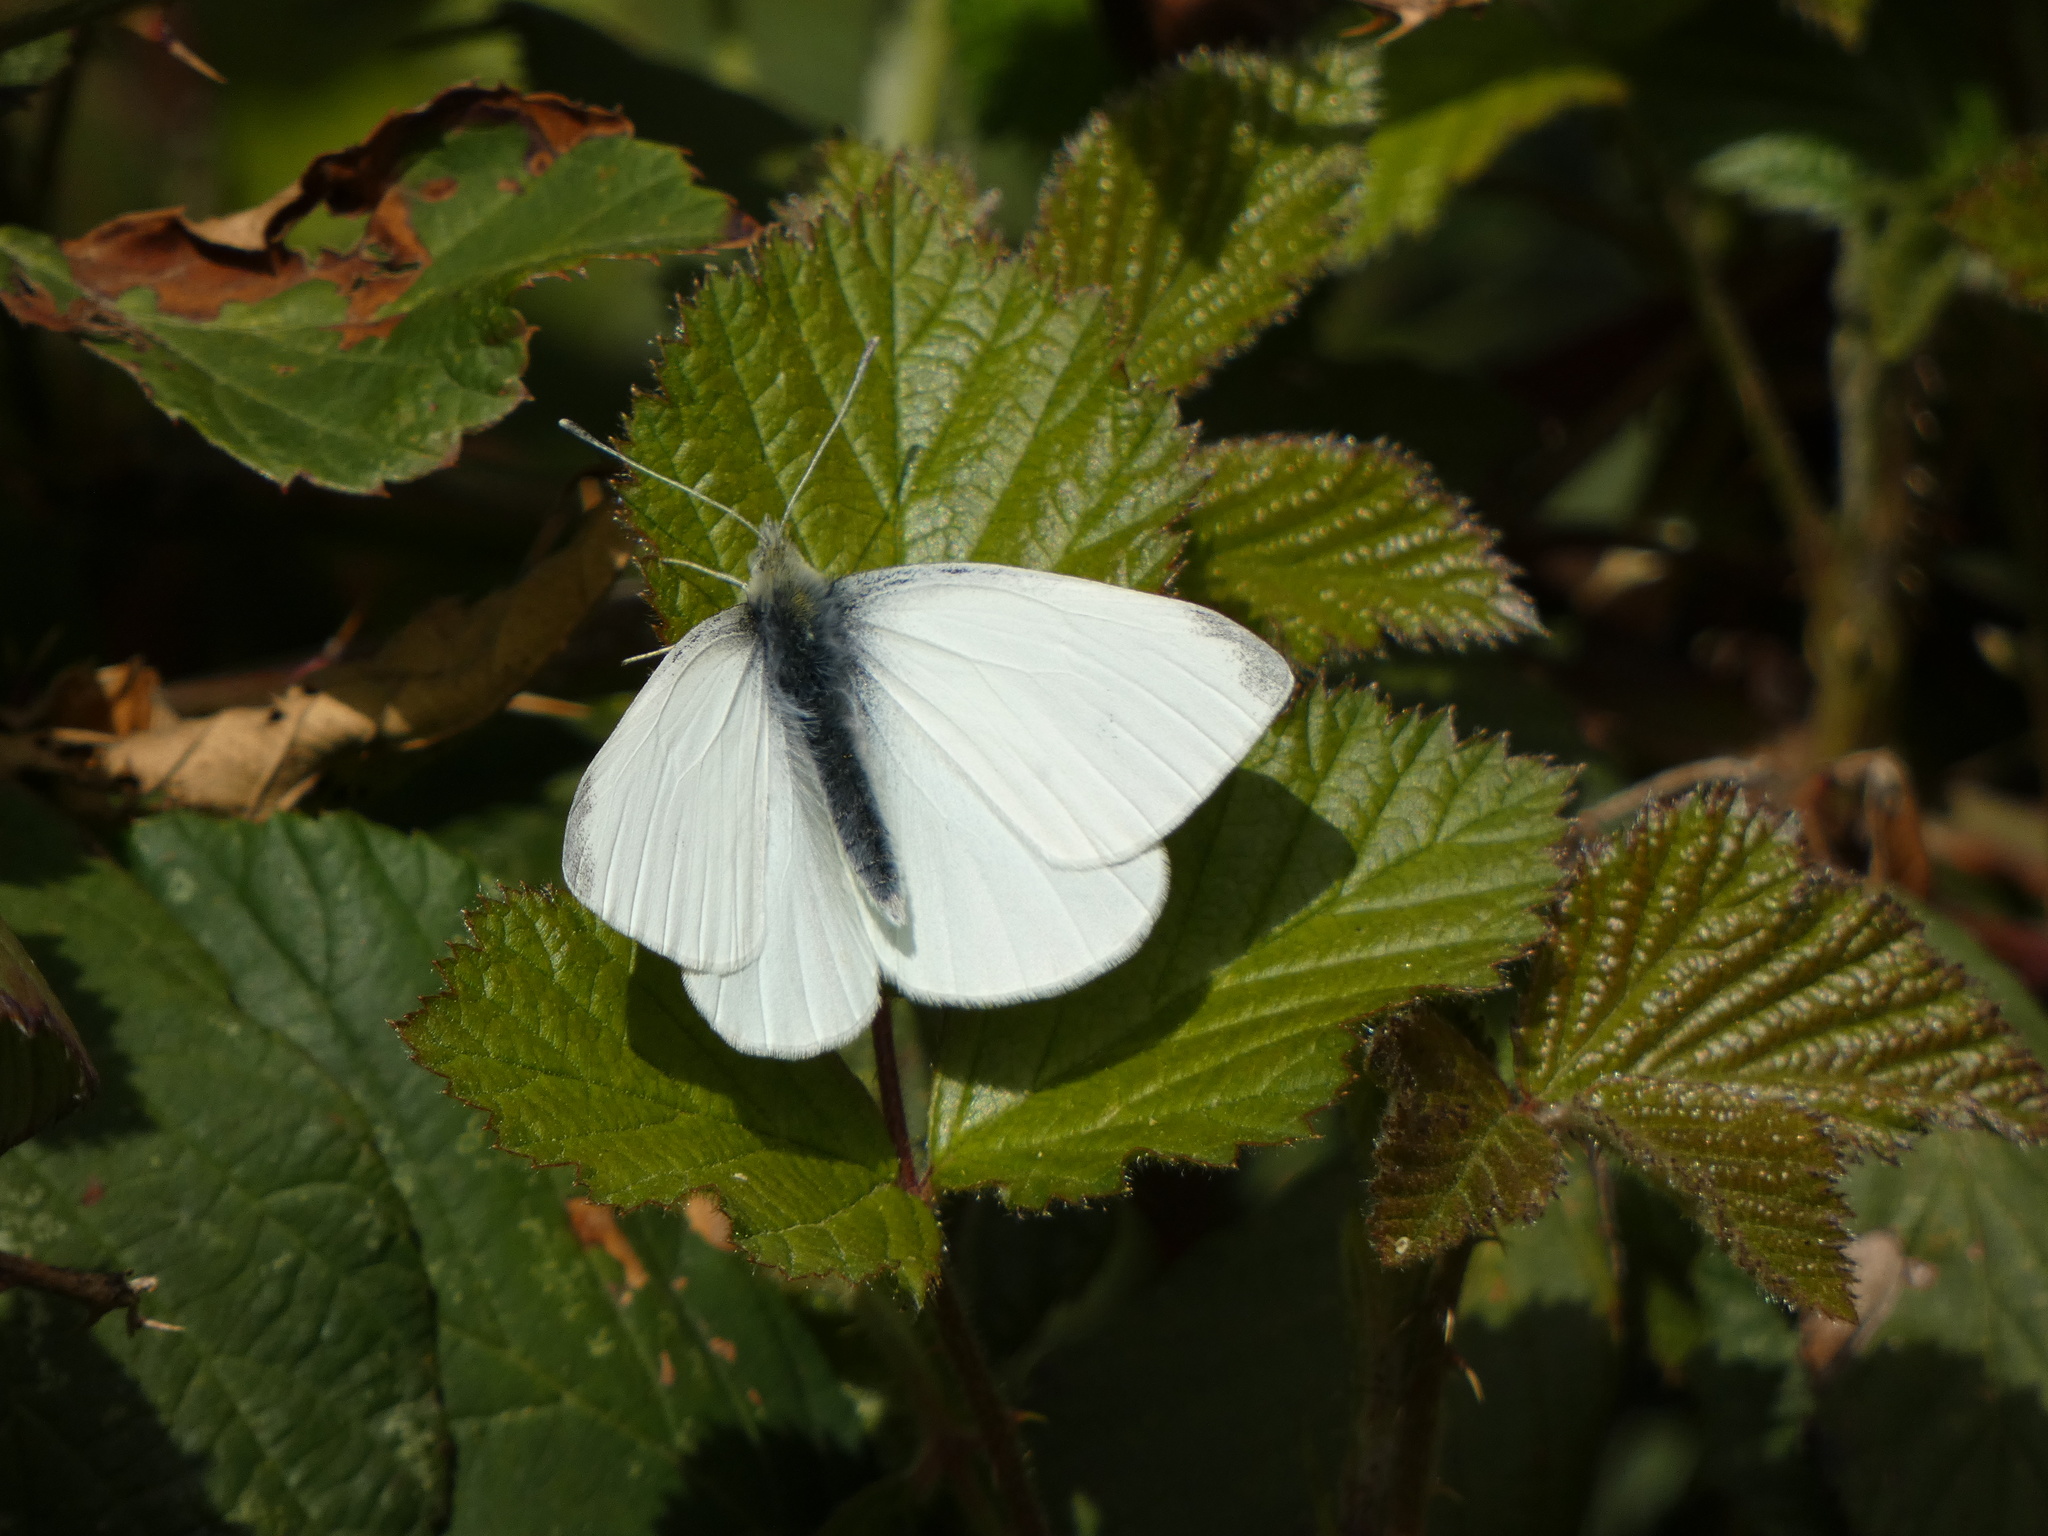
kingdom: Animalia
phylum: Arthropoda
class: Insecta
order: Lepidoptera
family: Pieridae
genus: Pieris
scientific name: Pieris rapae
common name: Small white
